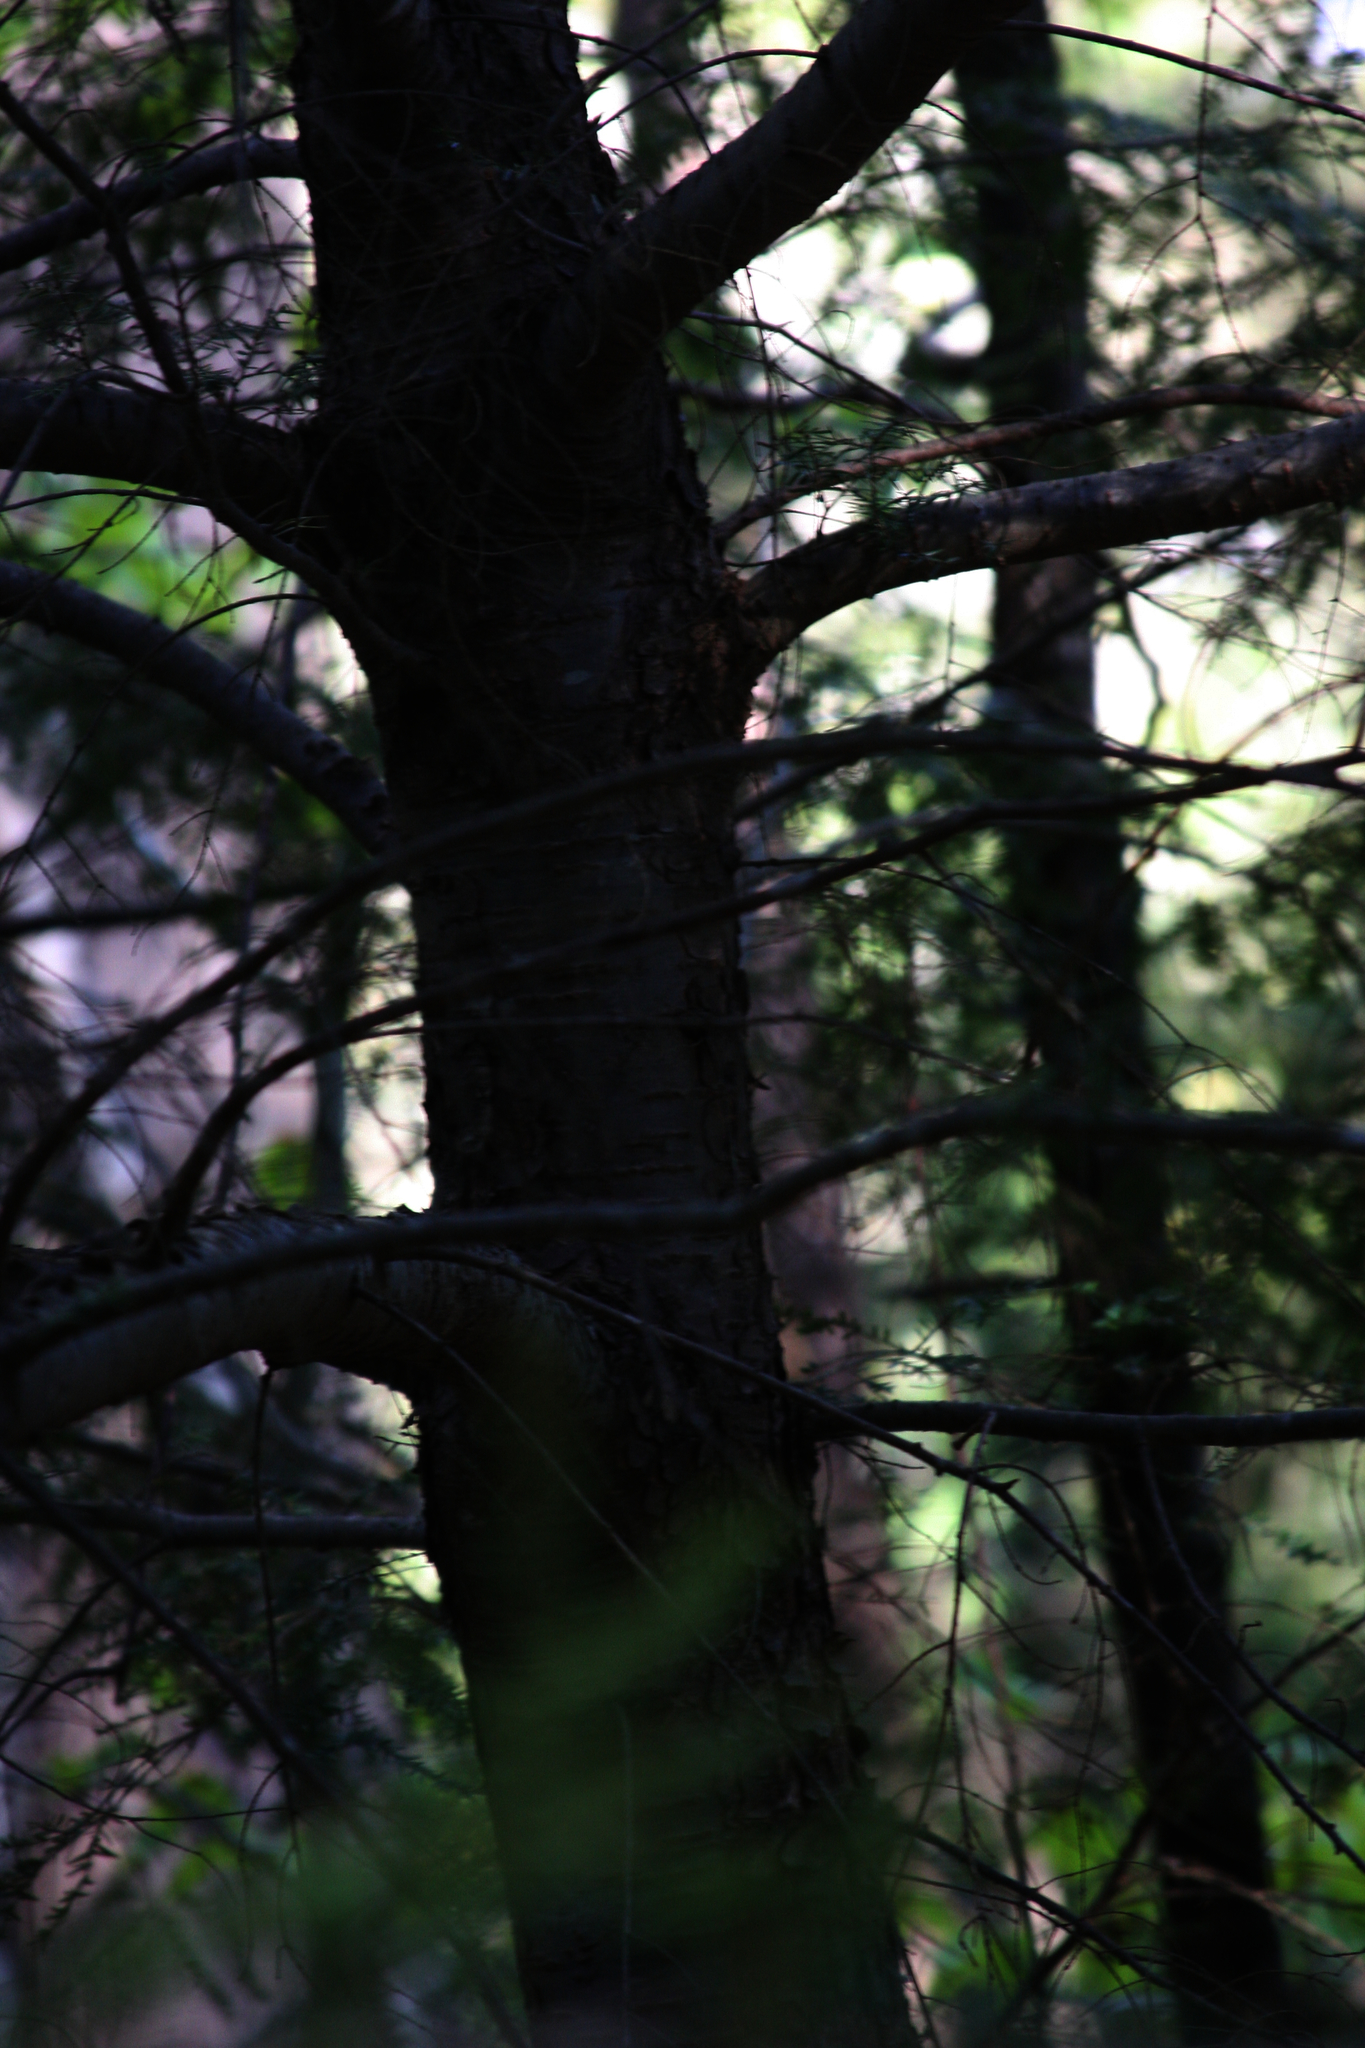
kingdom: Plantae
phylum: Tracheophyta
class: Pinopsida
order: Pinales
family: Pinaceae
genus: Tsuga
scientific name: Tsuga canadensis
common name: Eastern hemlock
